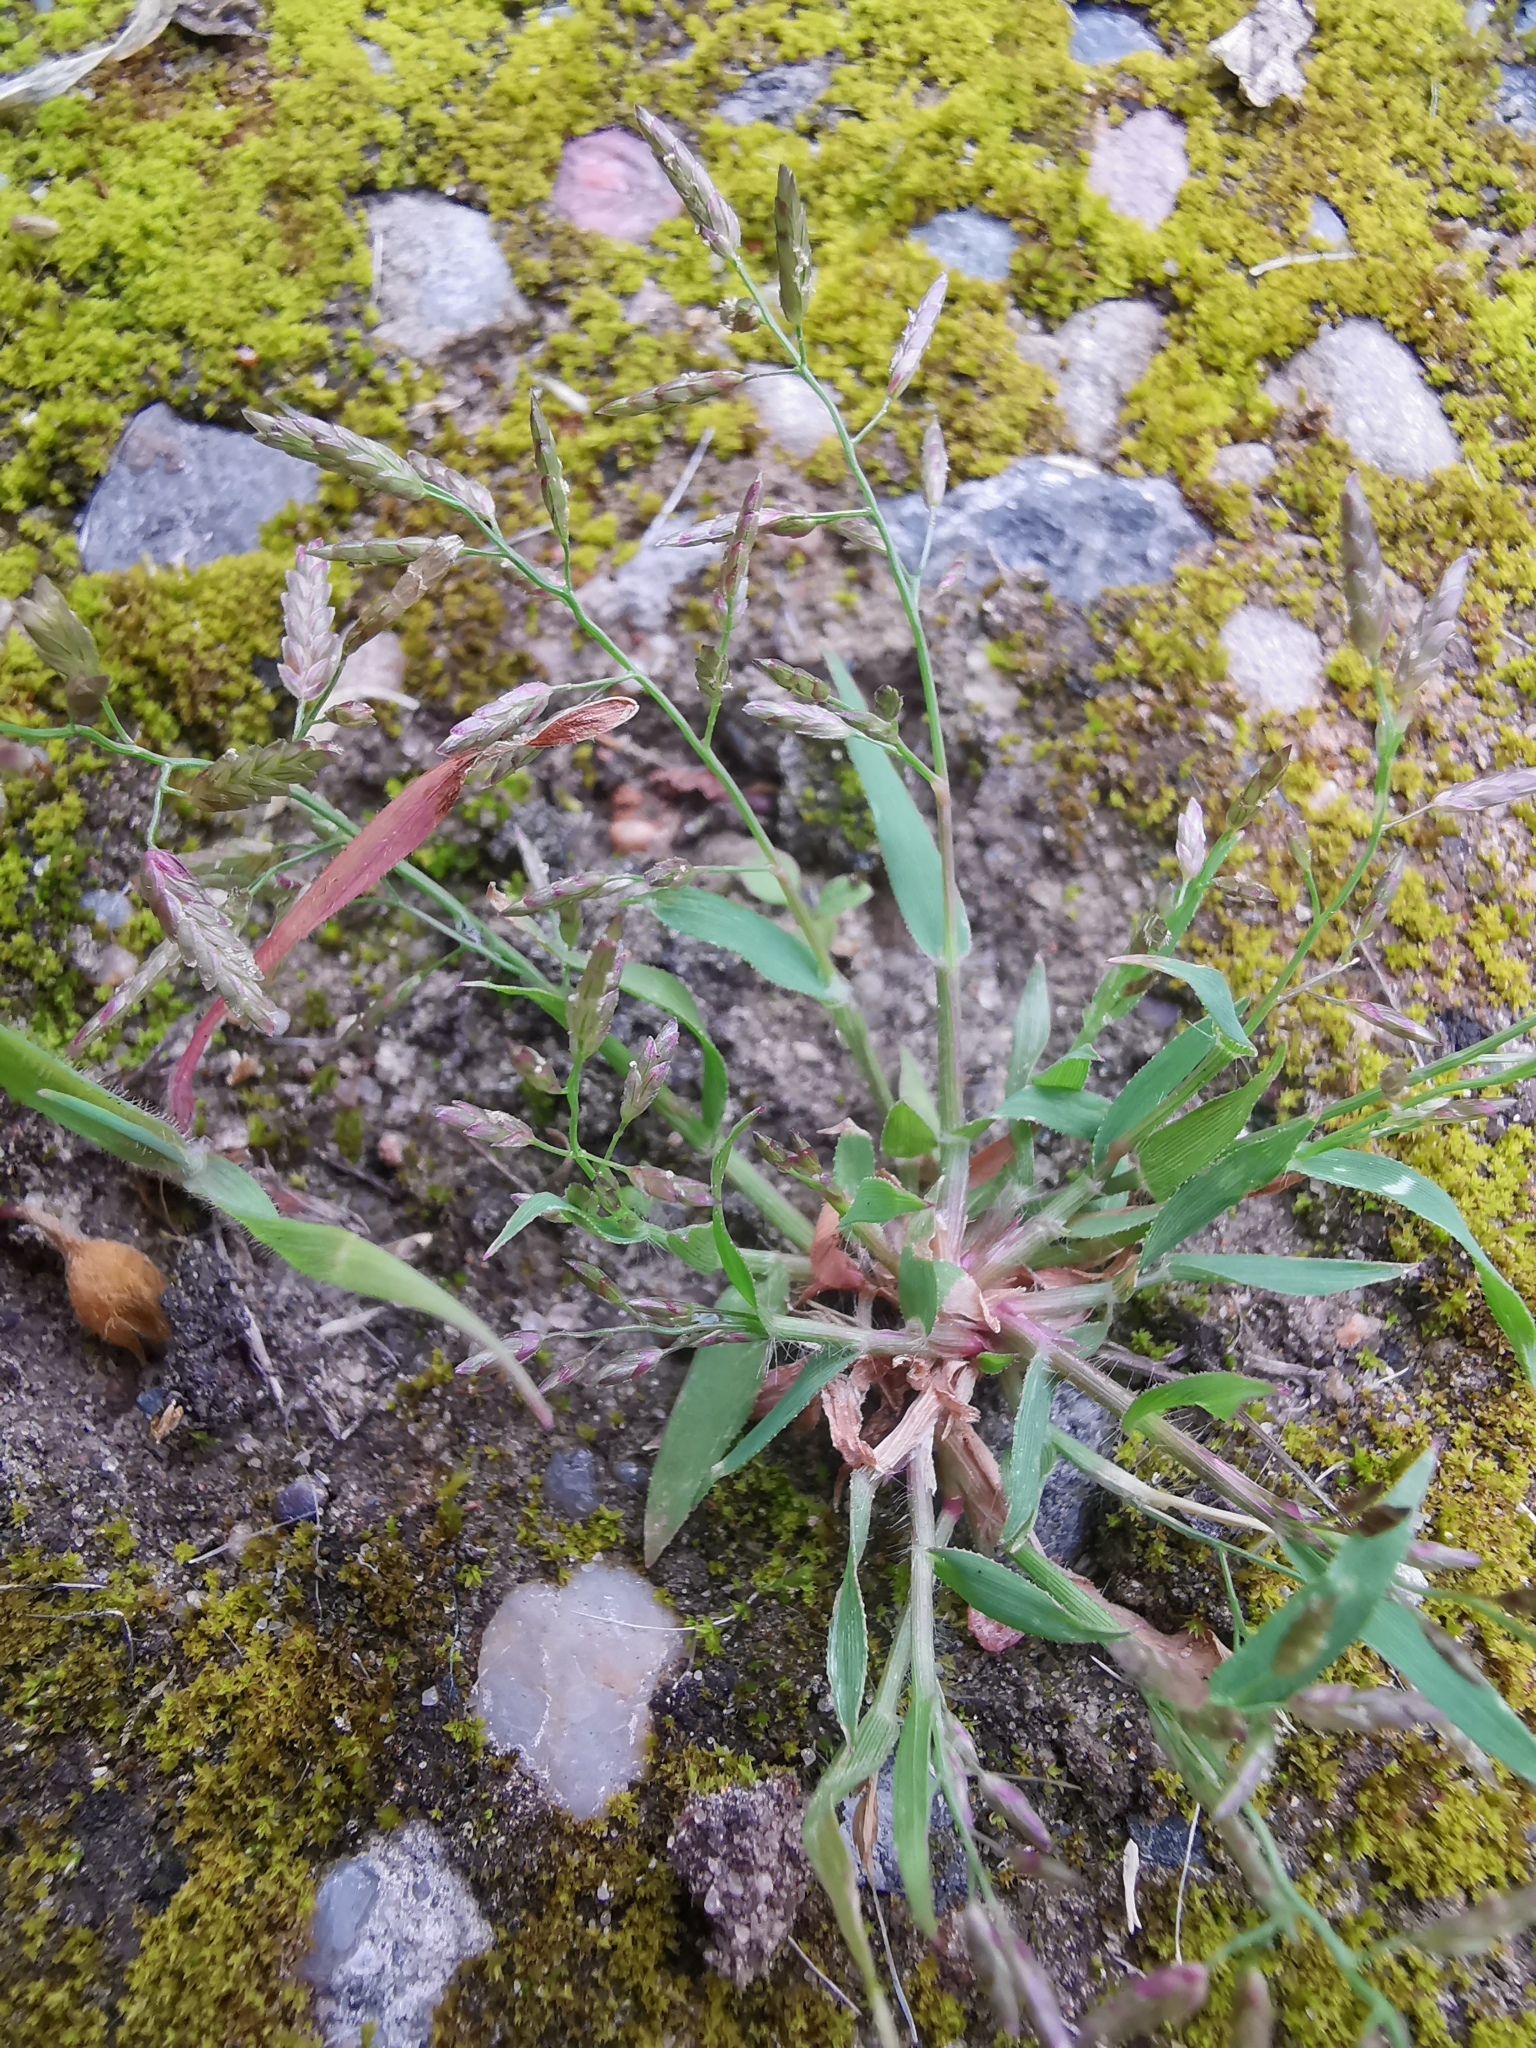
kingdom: Plantae
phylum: Tracheophyta
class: Liliopsida
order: Poales
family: Poaceae
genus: Eragrostis
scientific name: Eragrostis minor
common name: Small love-grass
